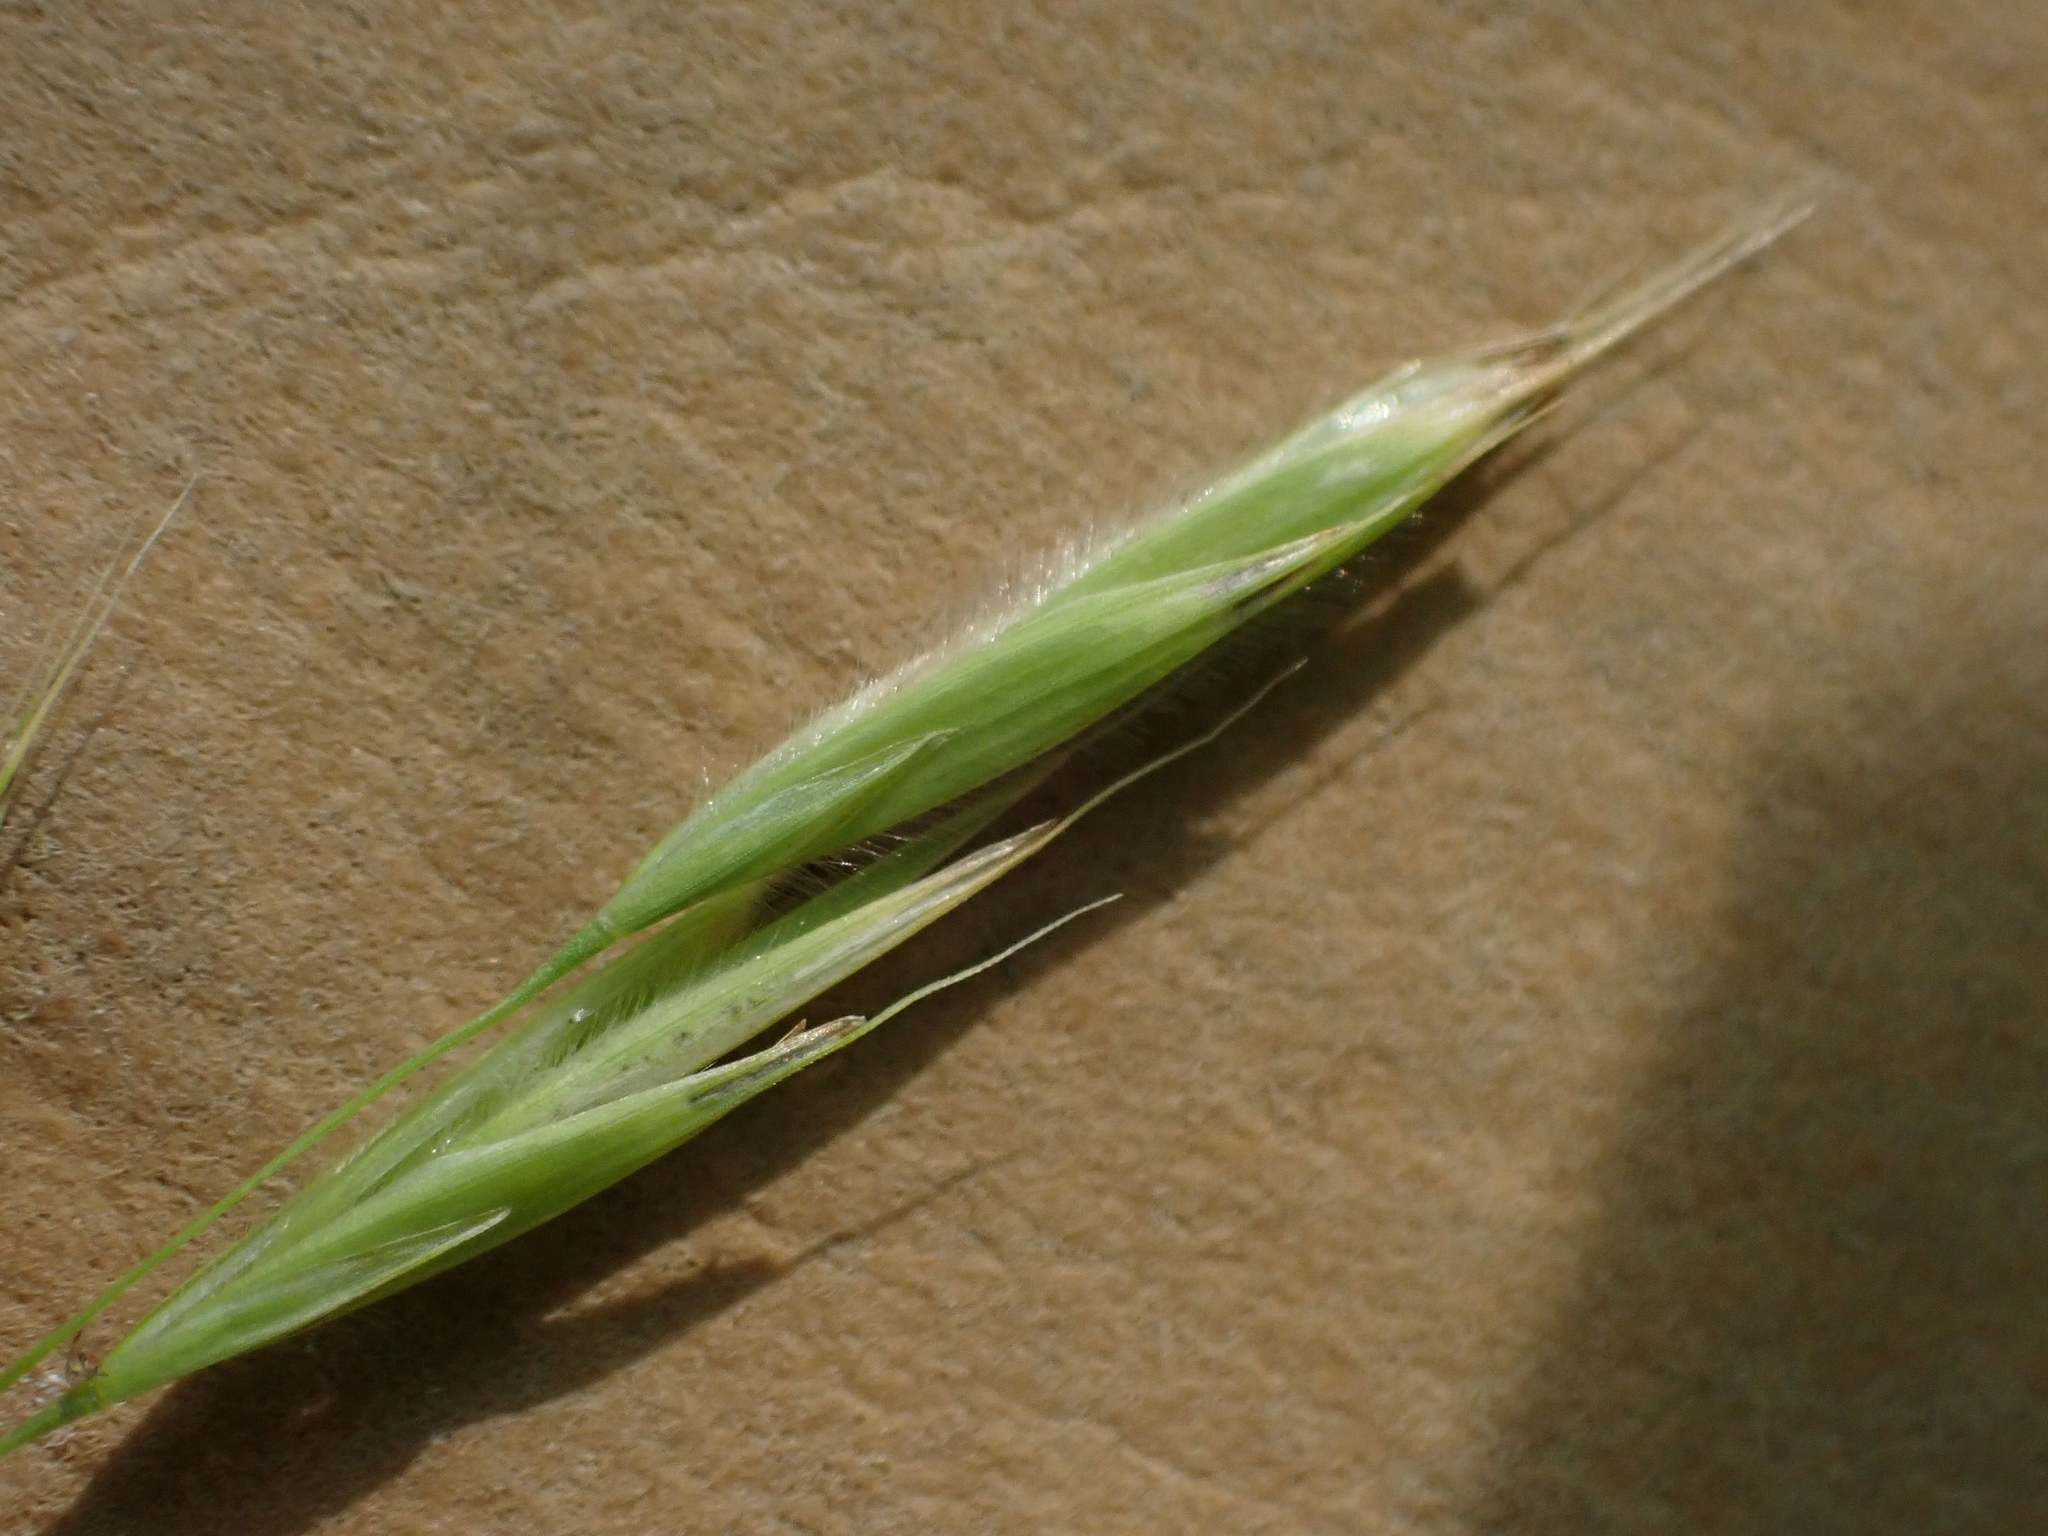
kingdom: Plantae
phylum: Tracheophyta
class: Liliopsida
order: Poales
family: Poaceae
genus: Bromus
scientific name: Bromus ciliatus
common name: Fringe brome
